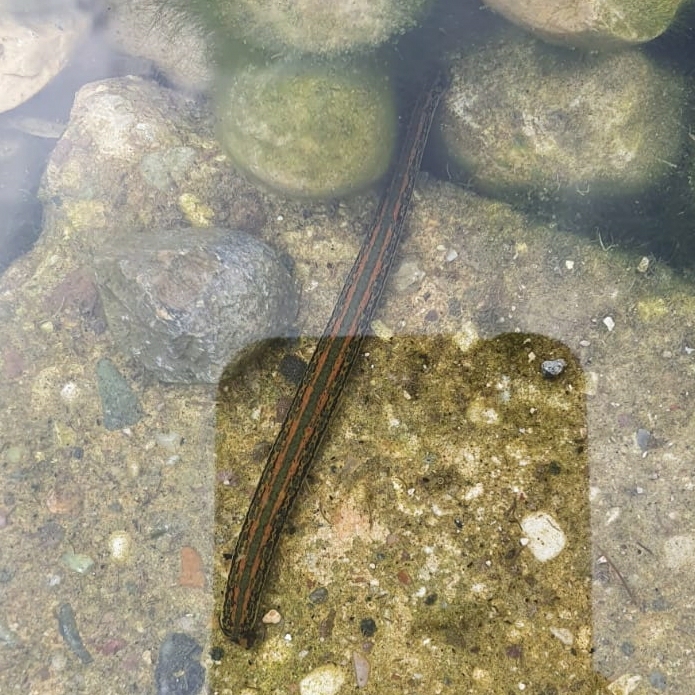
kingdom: Animalia
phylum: Annelida
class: Clitellata
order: Arhynchobdellida
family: Hirudinidae
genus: Hirudo
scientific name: Hirudo verbana
